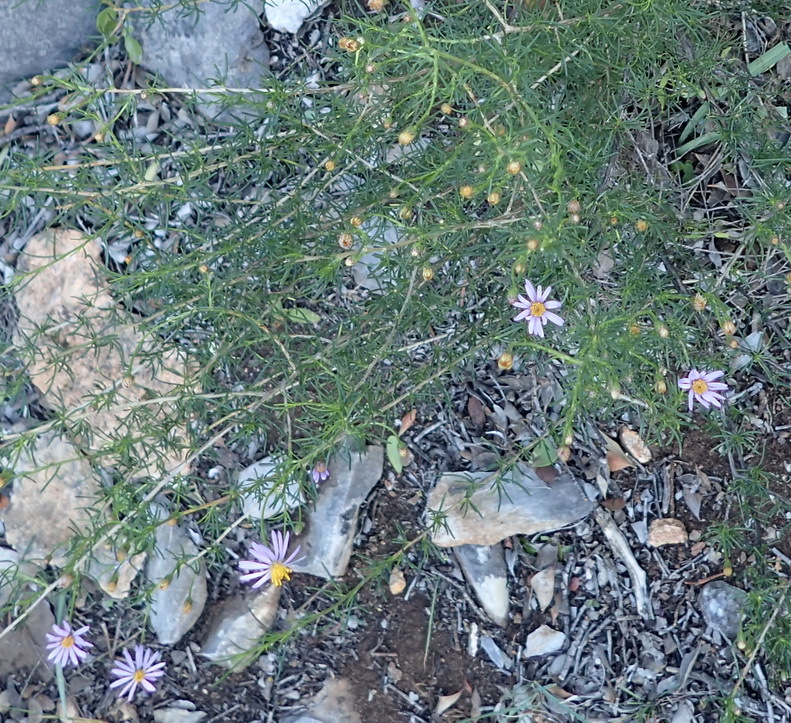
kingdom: Plantae
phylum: Tracheophyta
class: Magnoliopsida
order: Asterales
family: Asteraceae
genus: Felicia
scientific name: Felicia filifolia
